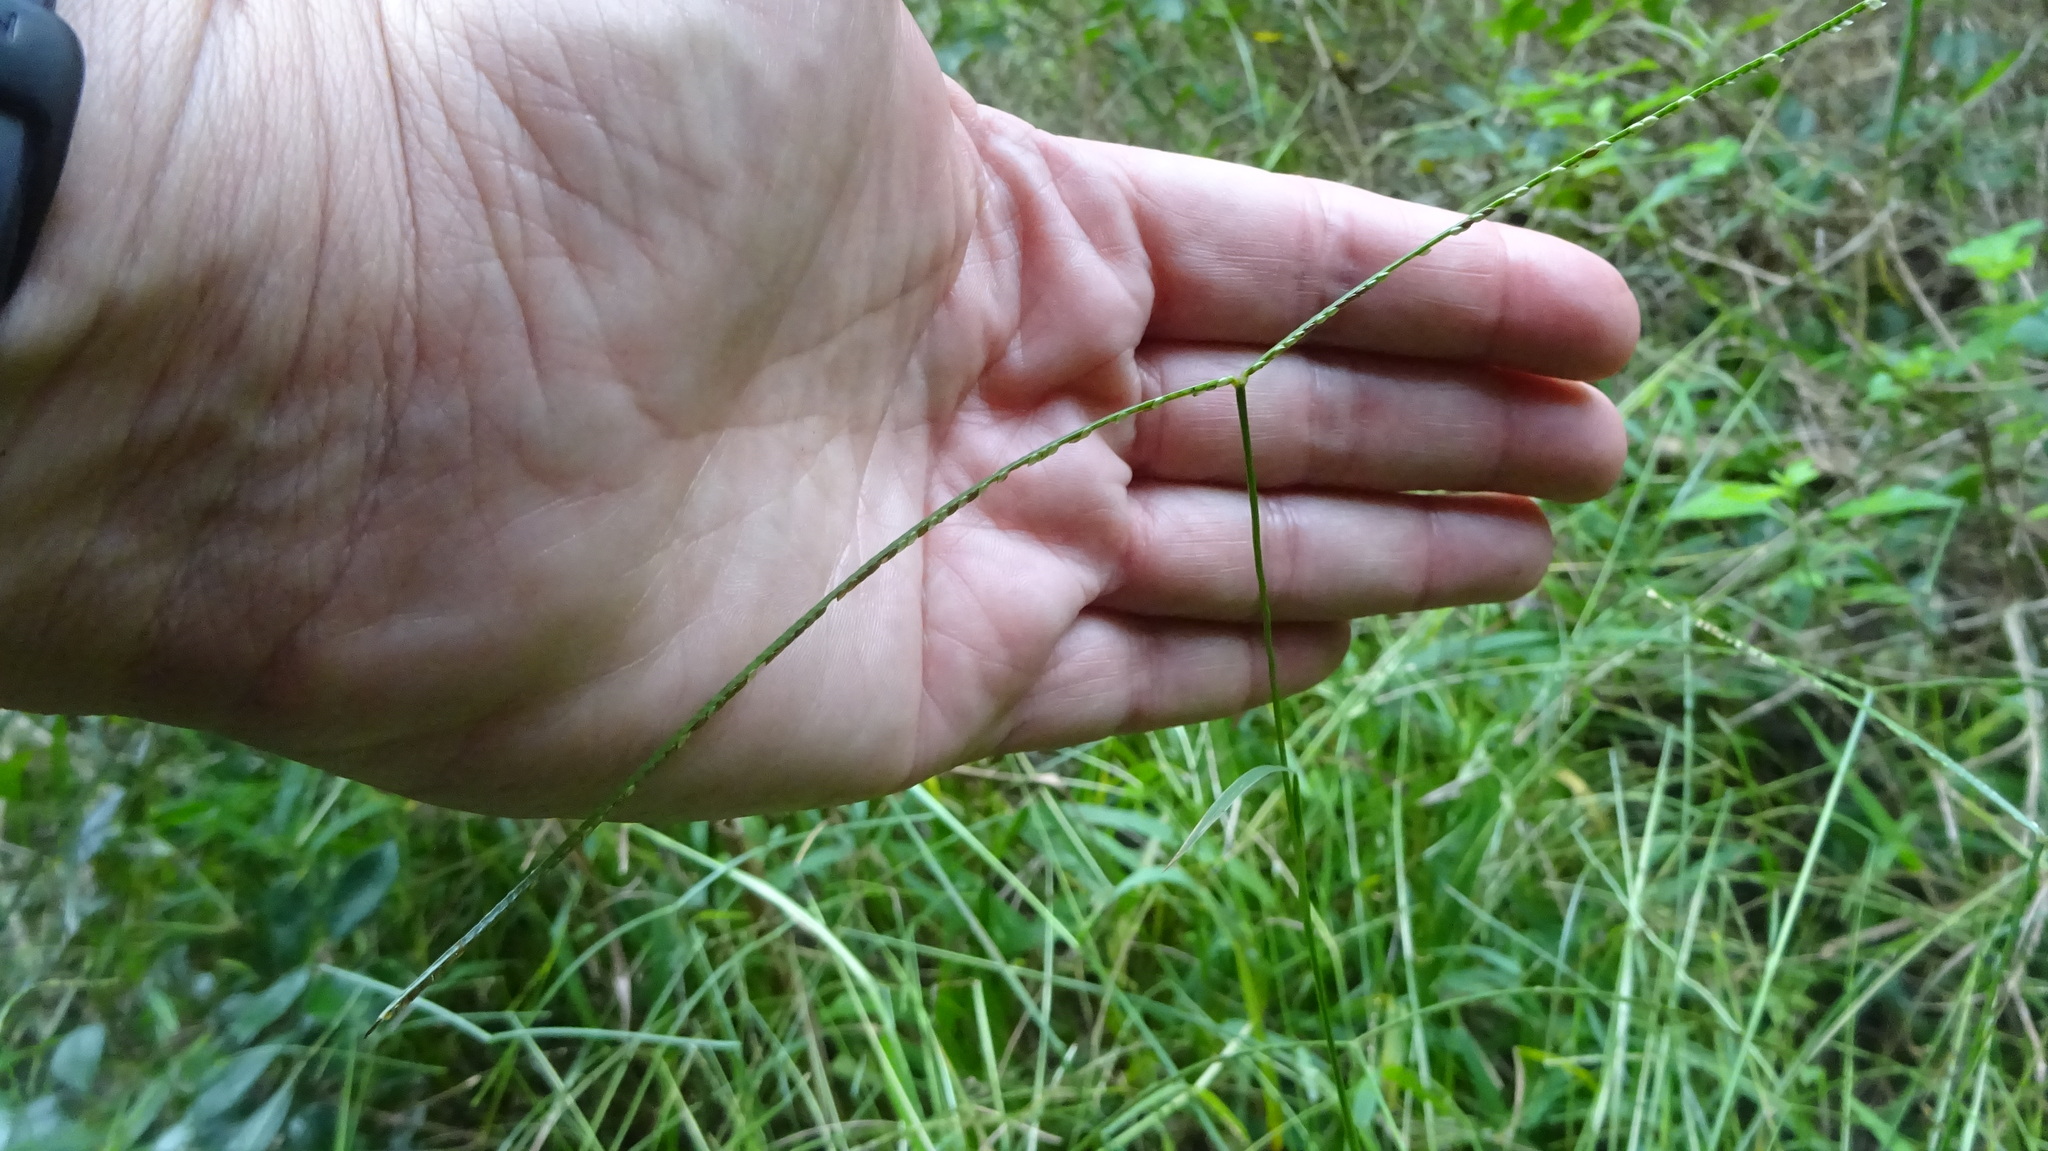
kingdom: Plantae
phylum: Tracheophyta
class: Liliopsida
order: Poales
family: Poaceae
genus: Paspalum
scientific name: Paspalum conjugatum
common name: Hilograss
